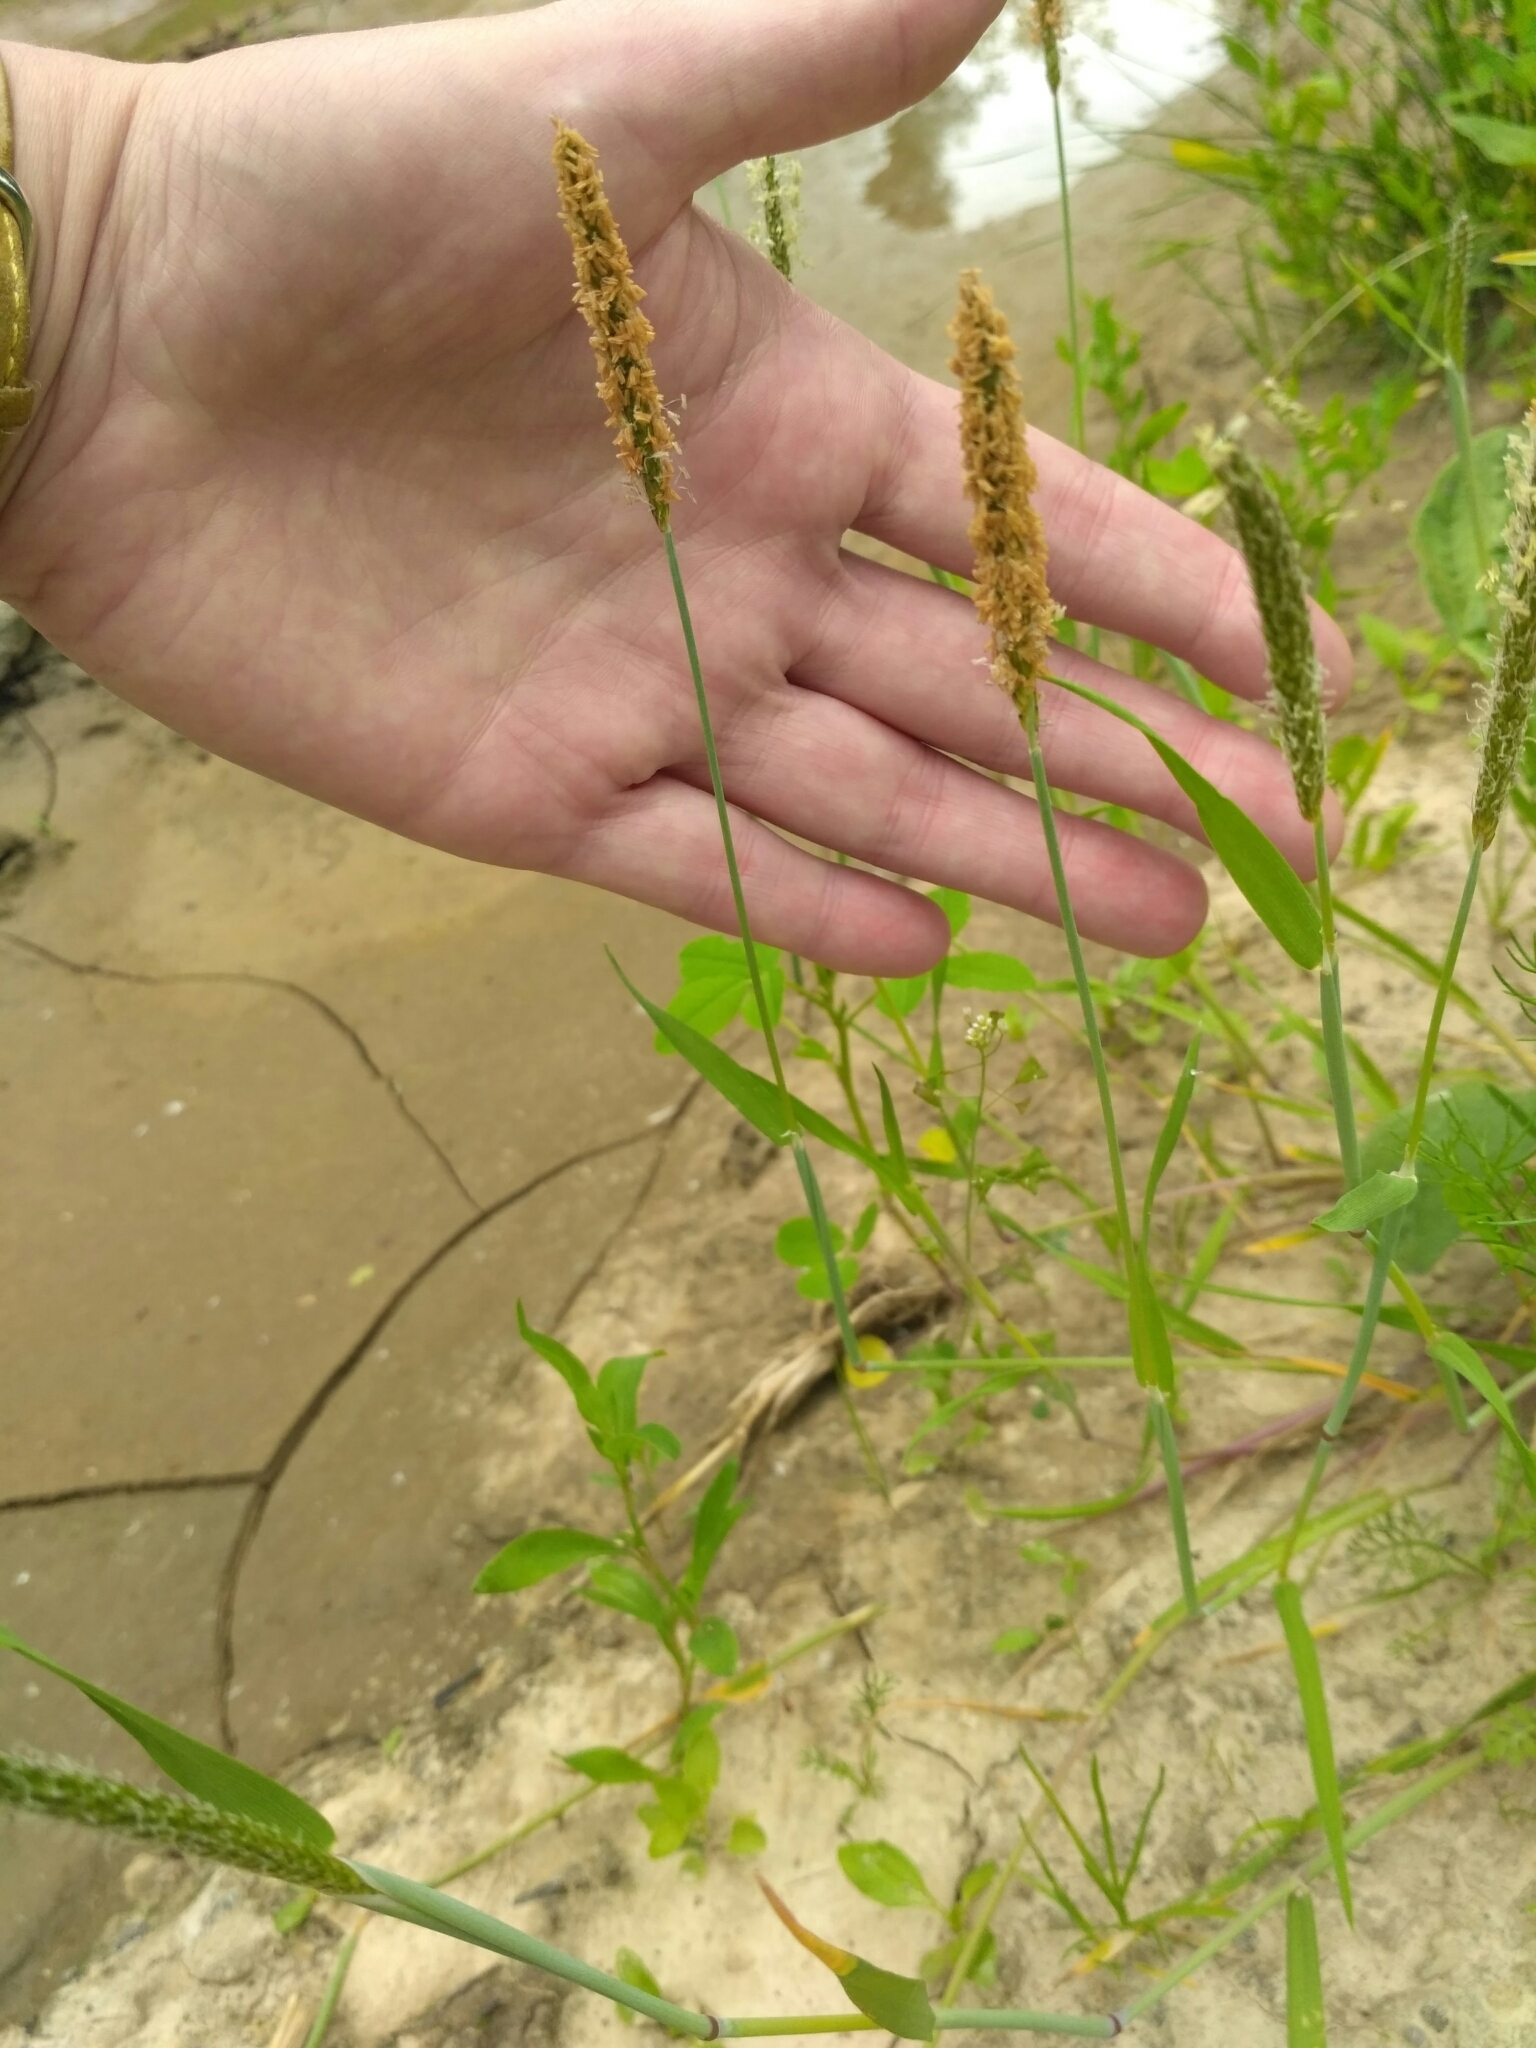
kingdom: Plantae
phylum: Tracheophyta
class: Liliopsida
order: Poales
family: Poaceae
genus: Alopecurus
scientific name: Alopecurus geniculatus
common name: Water foxtail
